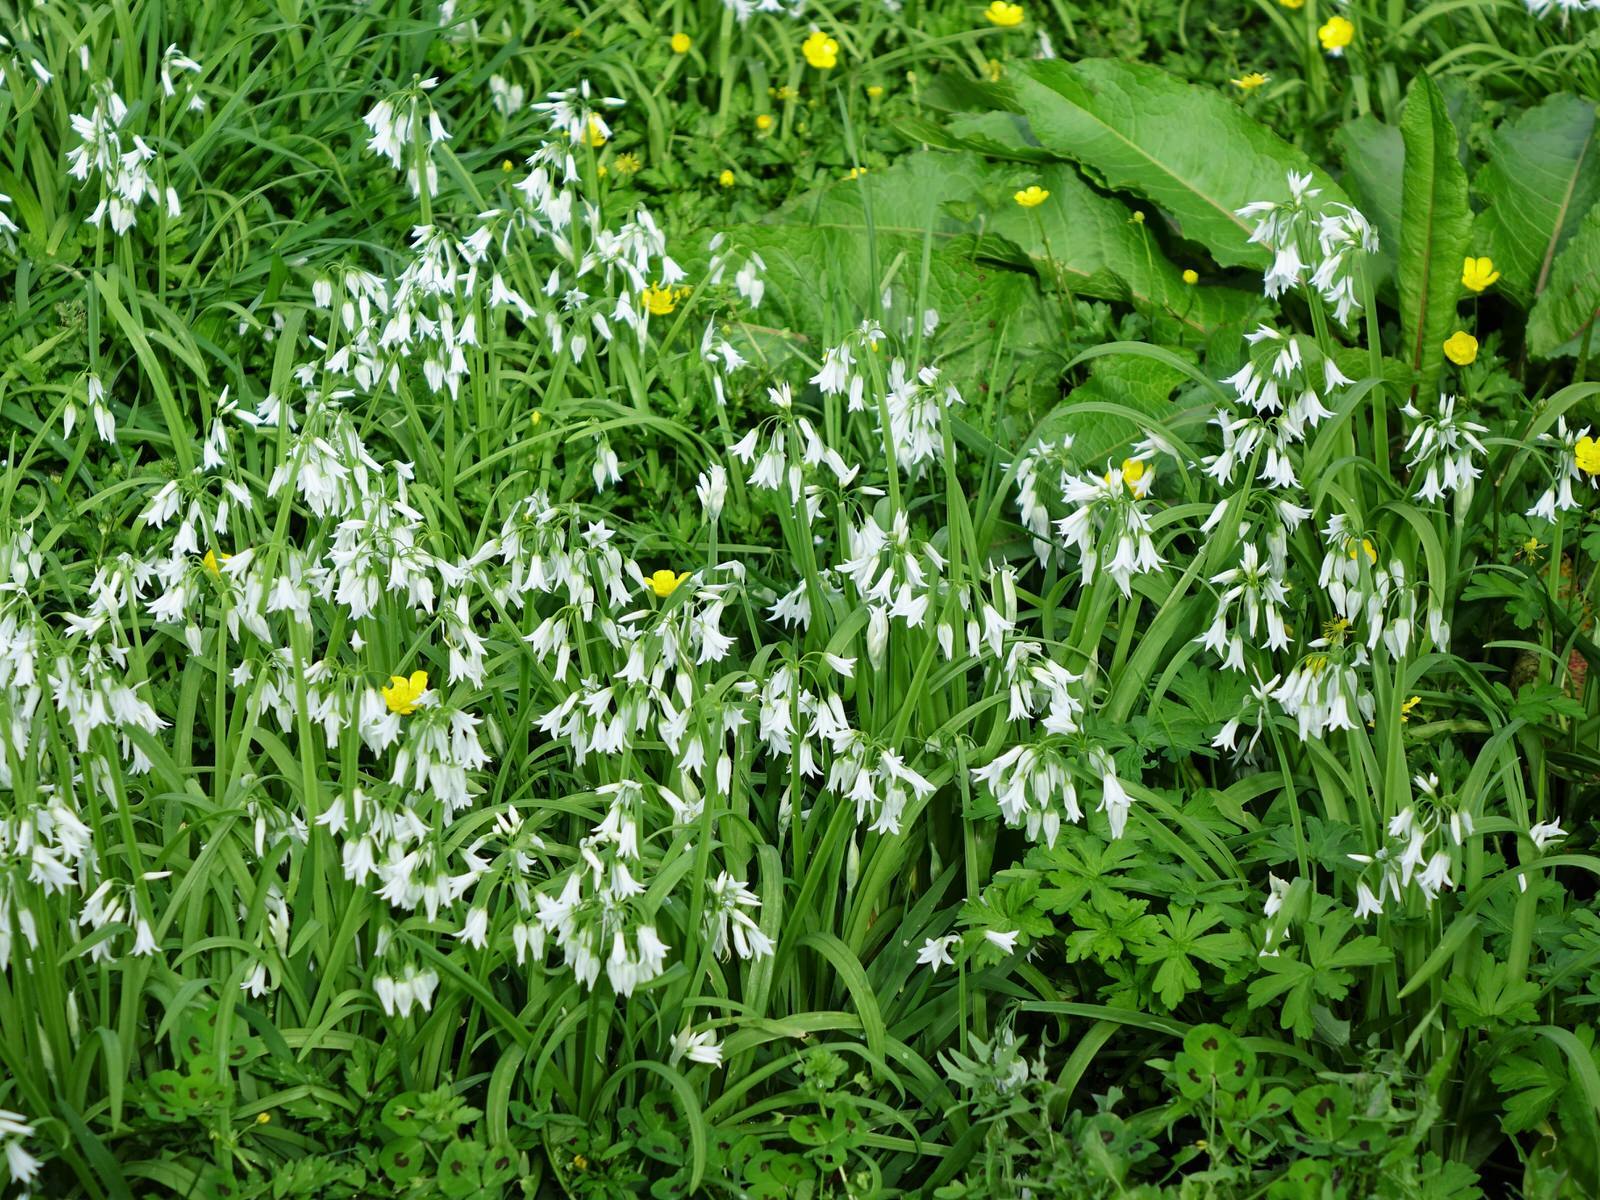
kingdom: Plantae
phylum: Tracheophyta
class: Liliopsida
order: Asparagales
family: Amaryllidaceae
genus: Allium
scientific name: Allium triquetrum
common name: Three-cornered garlic
